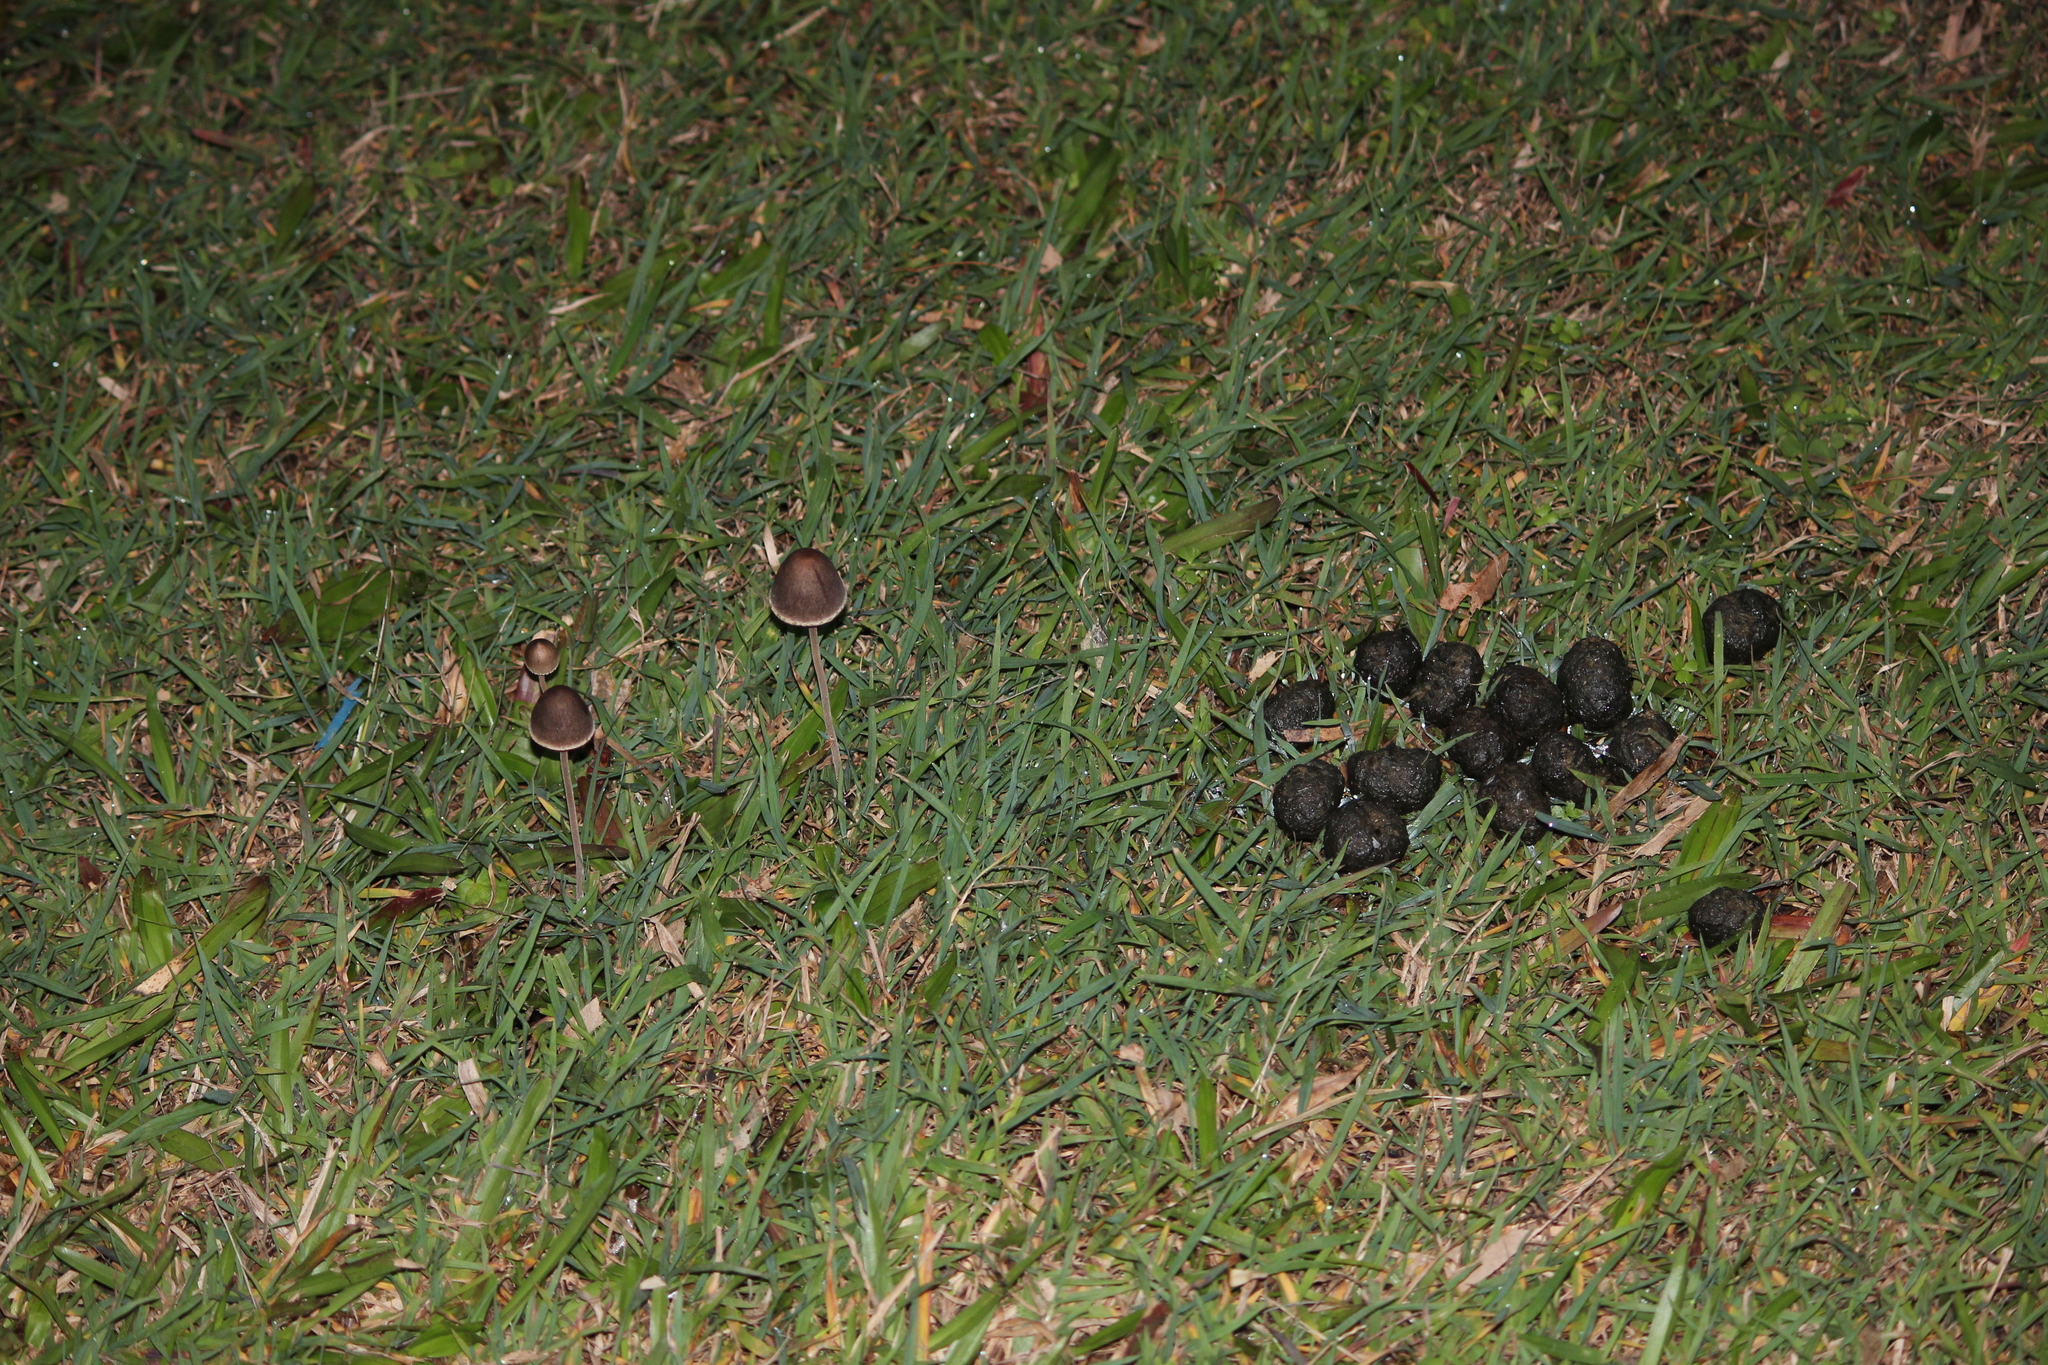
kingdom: Fungi
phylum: Basidiomycota
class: Agaricomycetes
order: Agaricales
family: Bolbitiaceae
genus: Panaeolus
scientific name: Panaeolus papilionaceus
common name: Petticoat mottlegill
